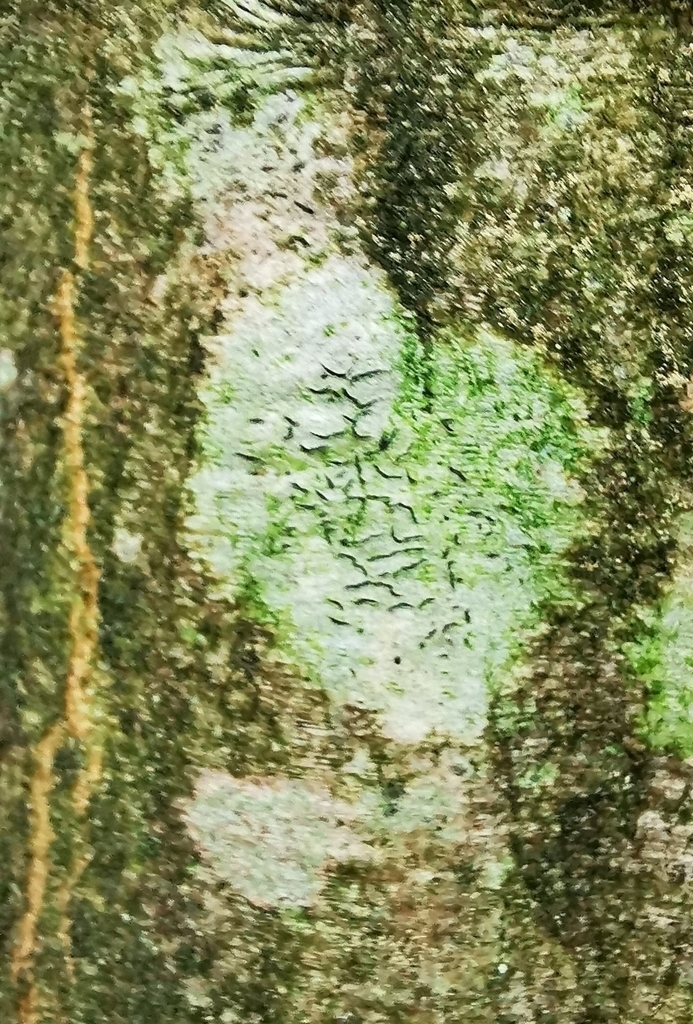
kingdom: Fungi
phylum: Ascomycota
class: Lecanoromycetes
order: Ostropales
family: Graphidaceae
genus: Graphis
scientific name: Graphis scripta
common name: Script lichen
